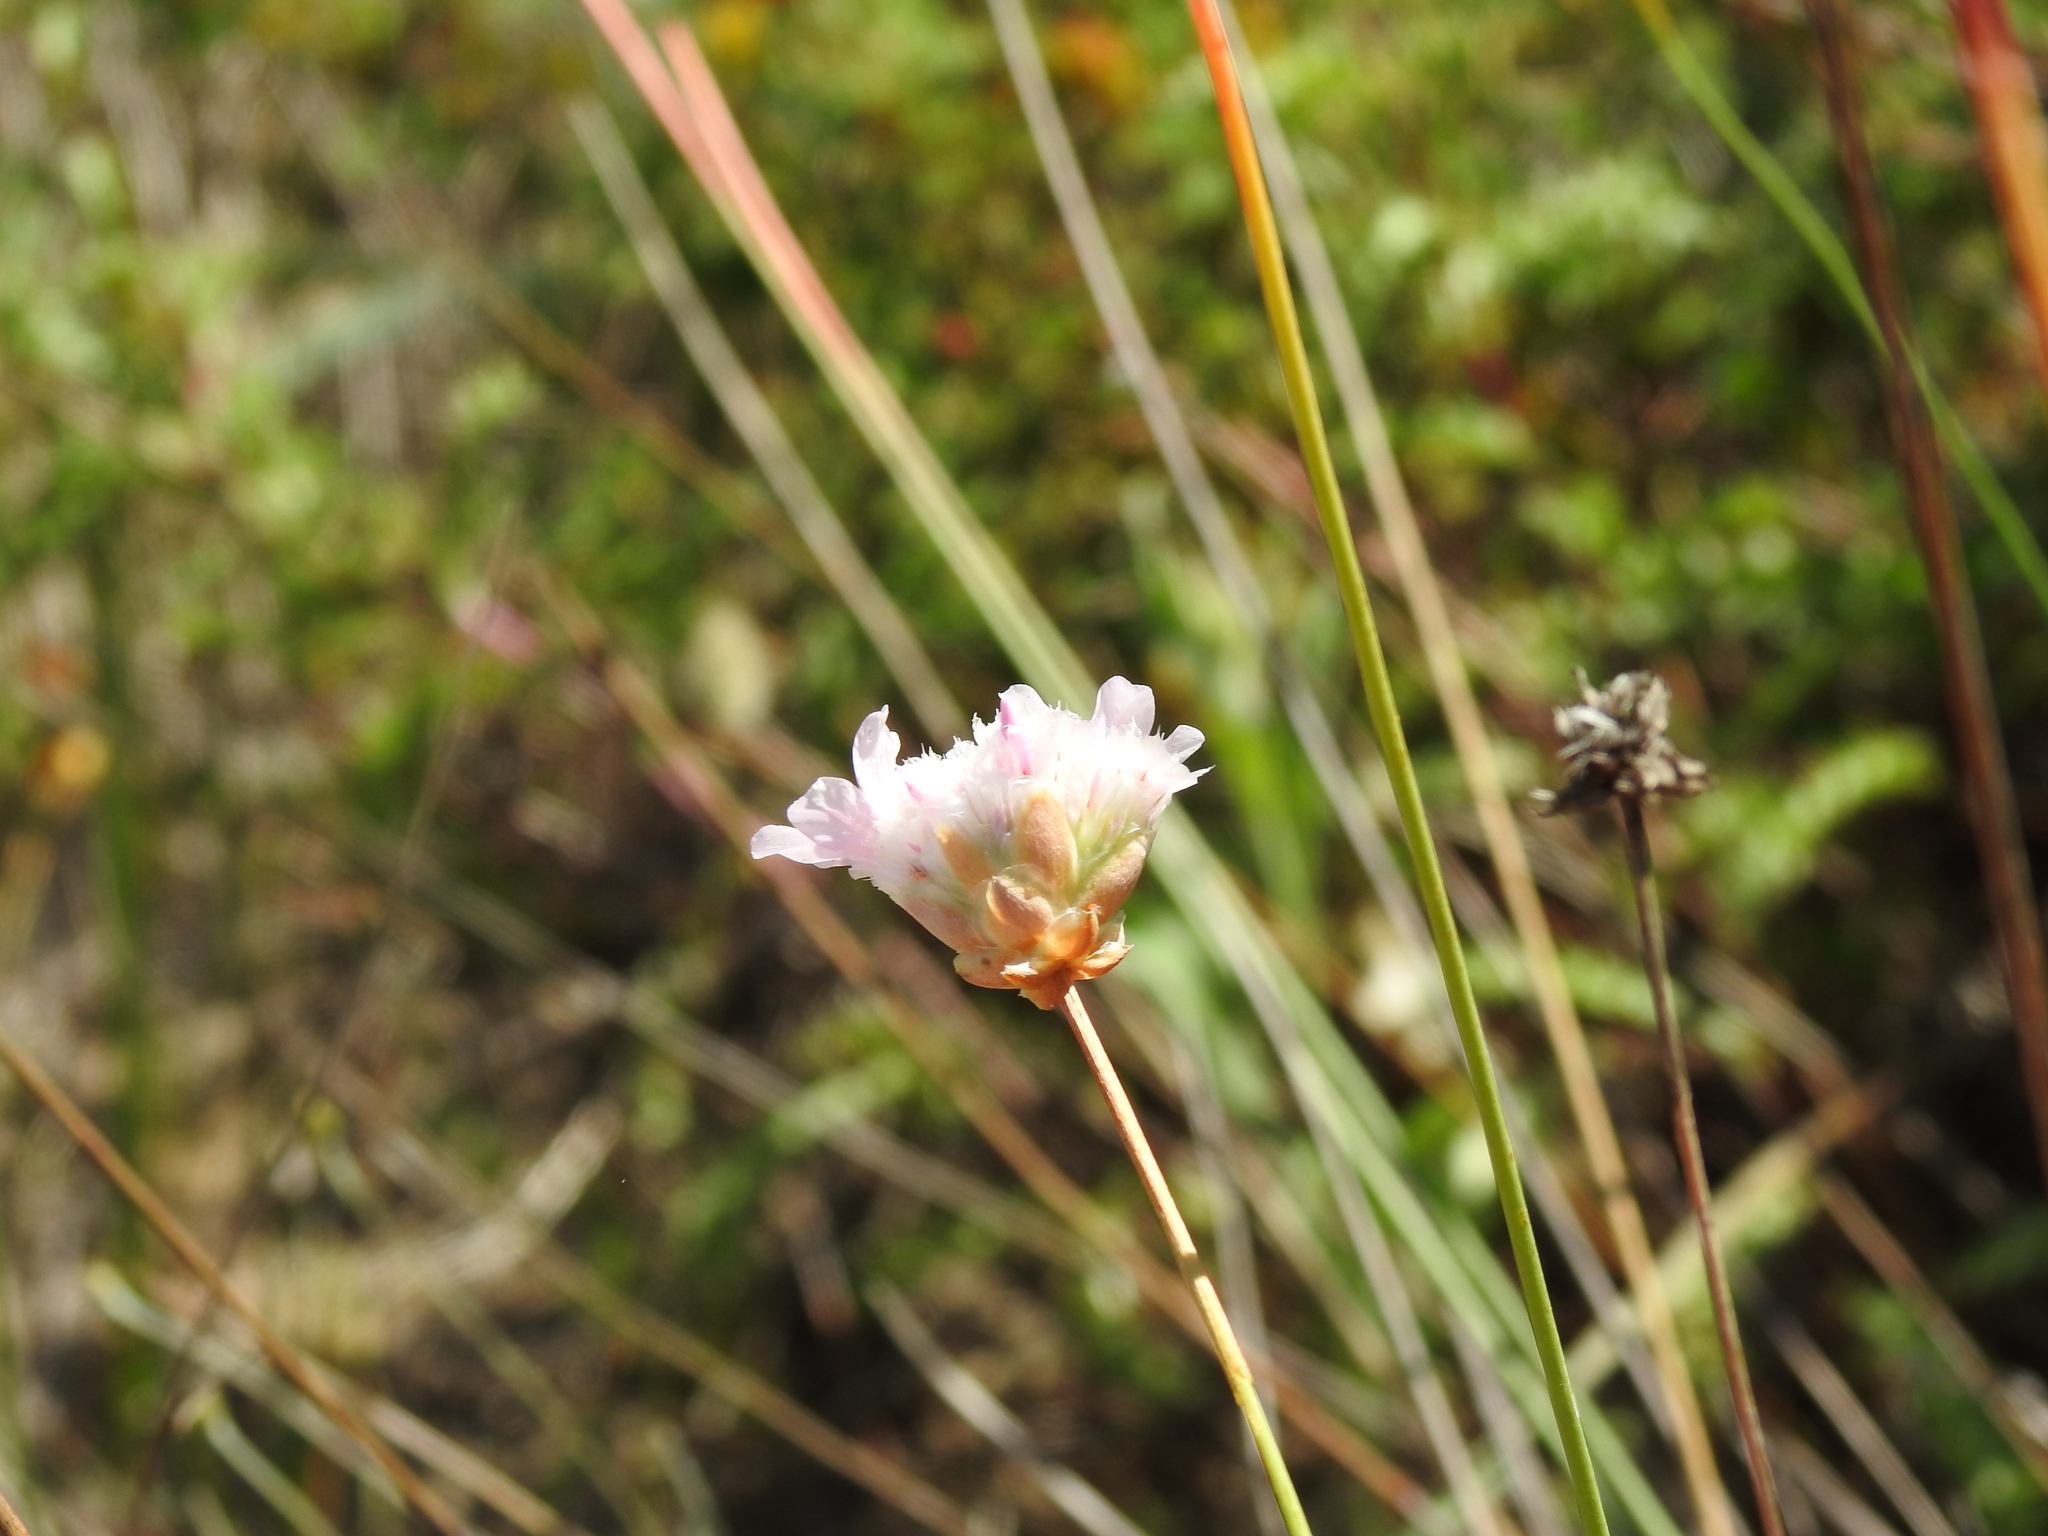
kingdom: Plantae
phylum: Tracheophyta
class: Magnoliopsida
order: Caryophyllales
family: Plumbaginaceae
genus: Armeria
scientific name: Armeria macrophylla
